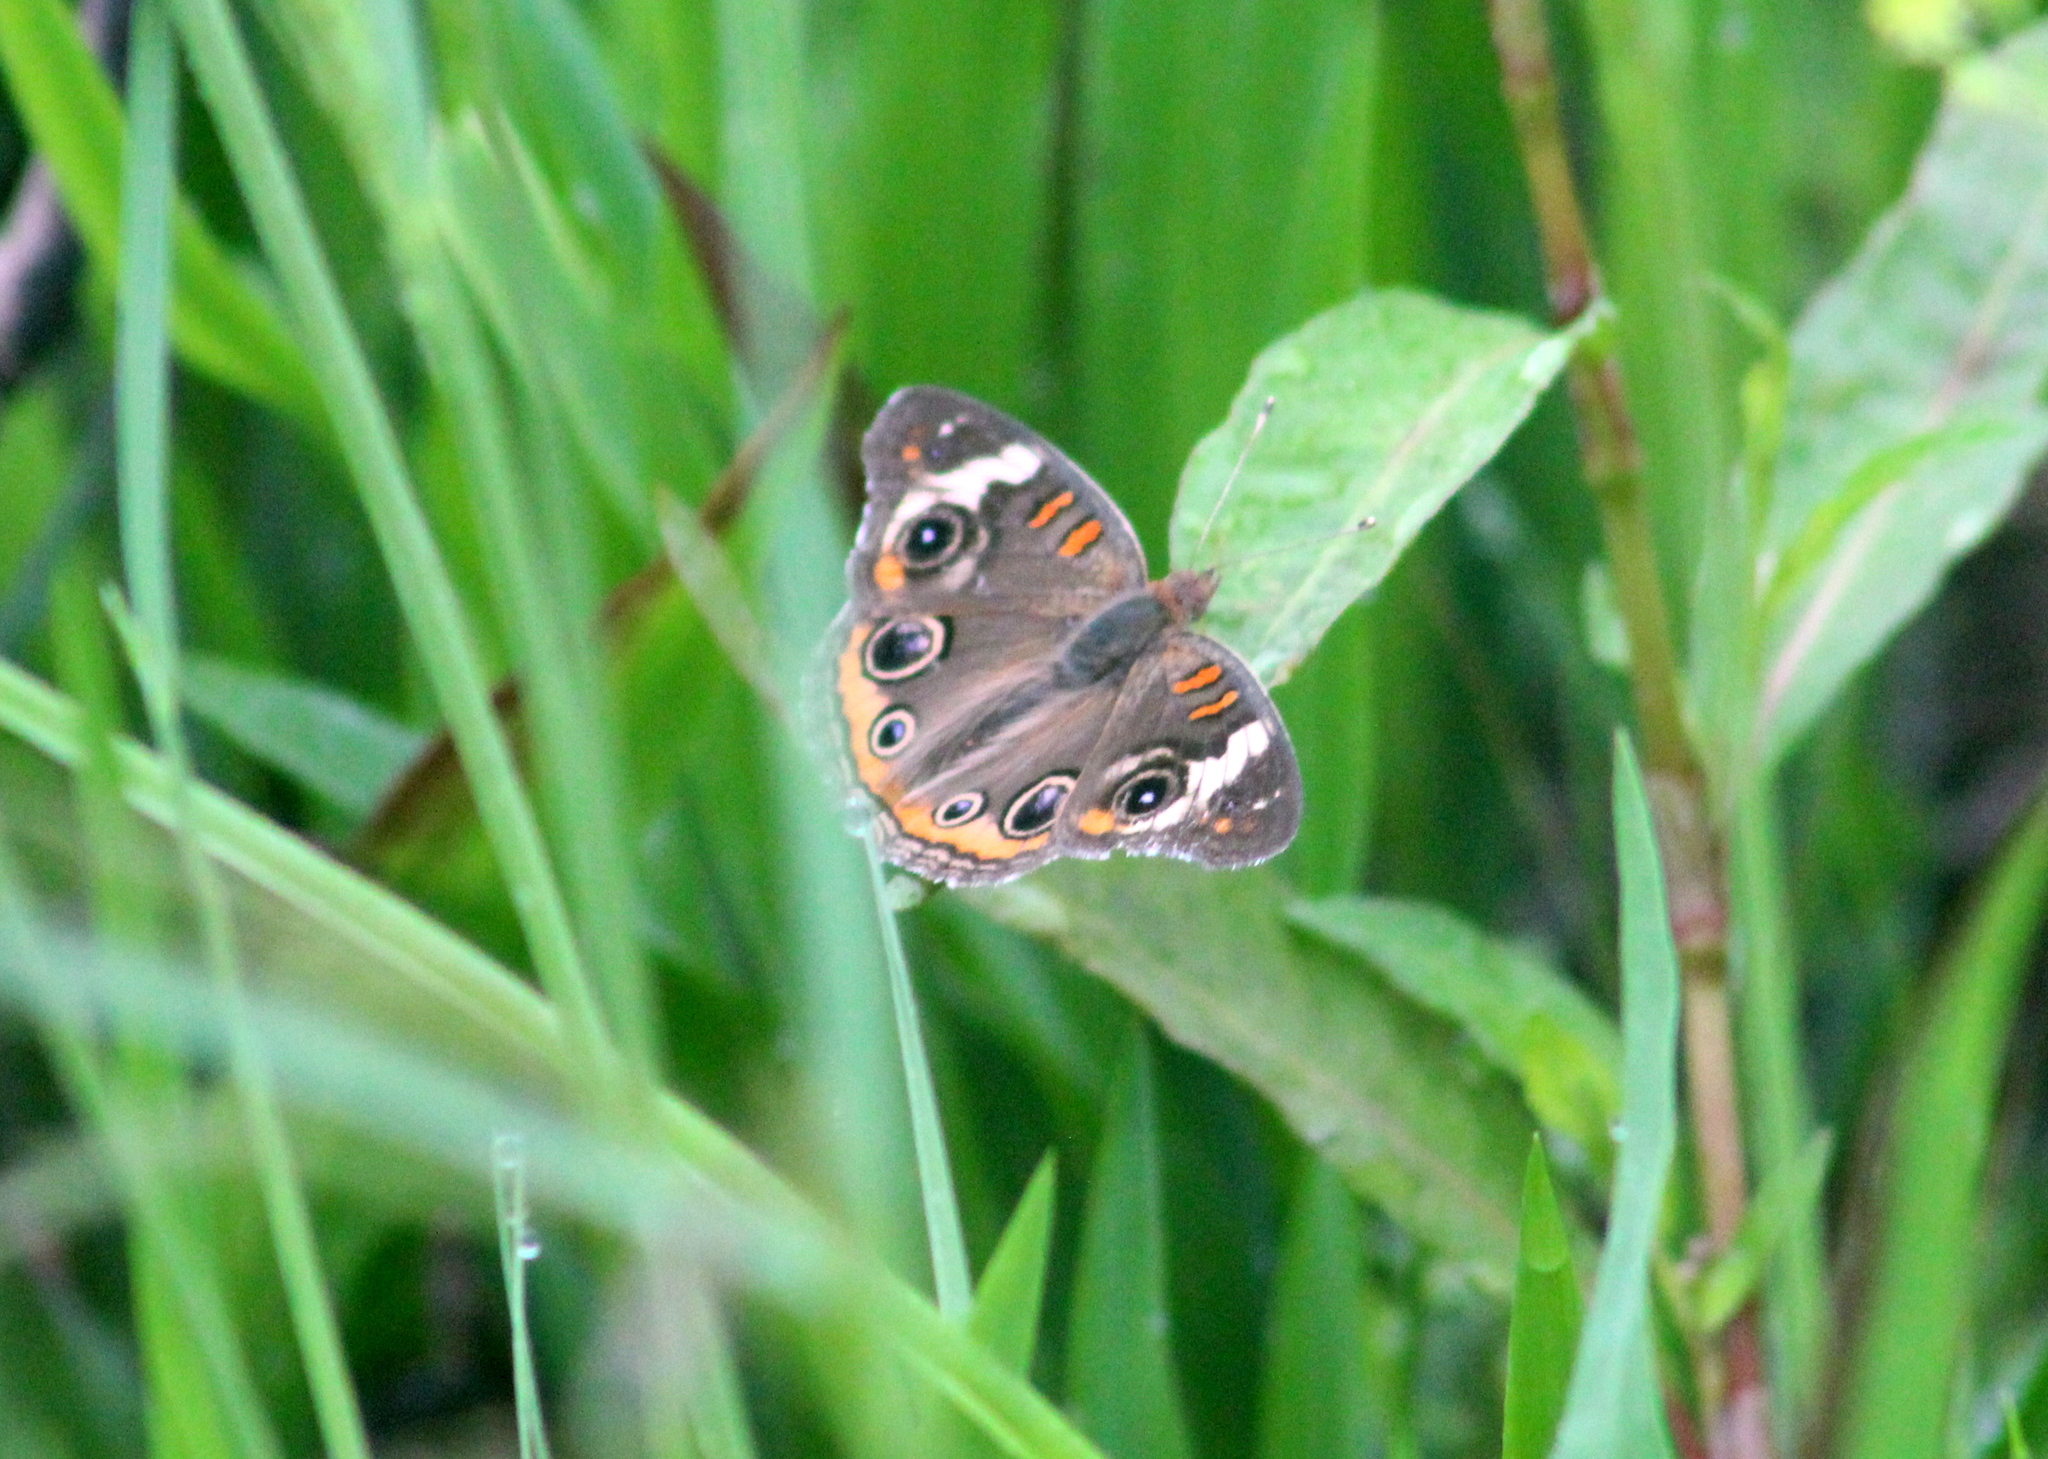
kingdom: Animalia
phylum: Arthropoda
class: Insecta
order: Lepidoptera
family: Nymphalidae
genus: Junonia
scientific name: Junonia coenia
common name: Common buckeye
